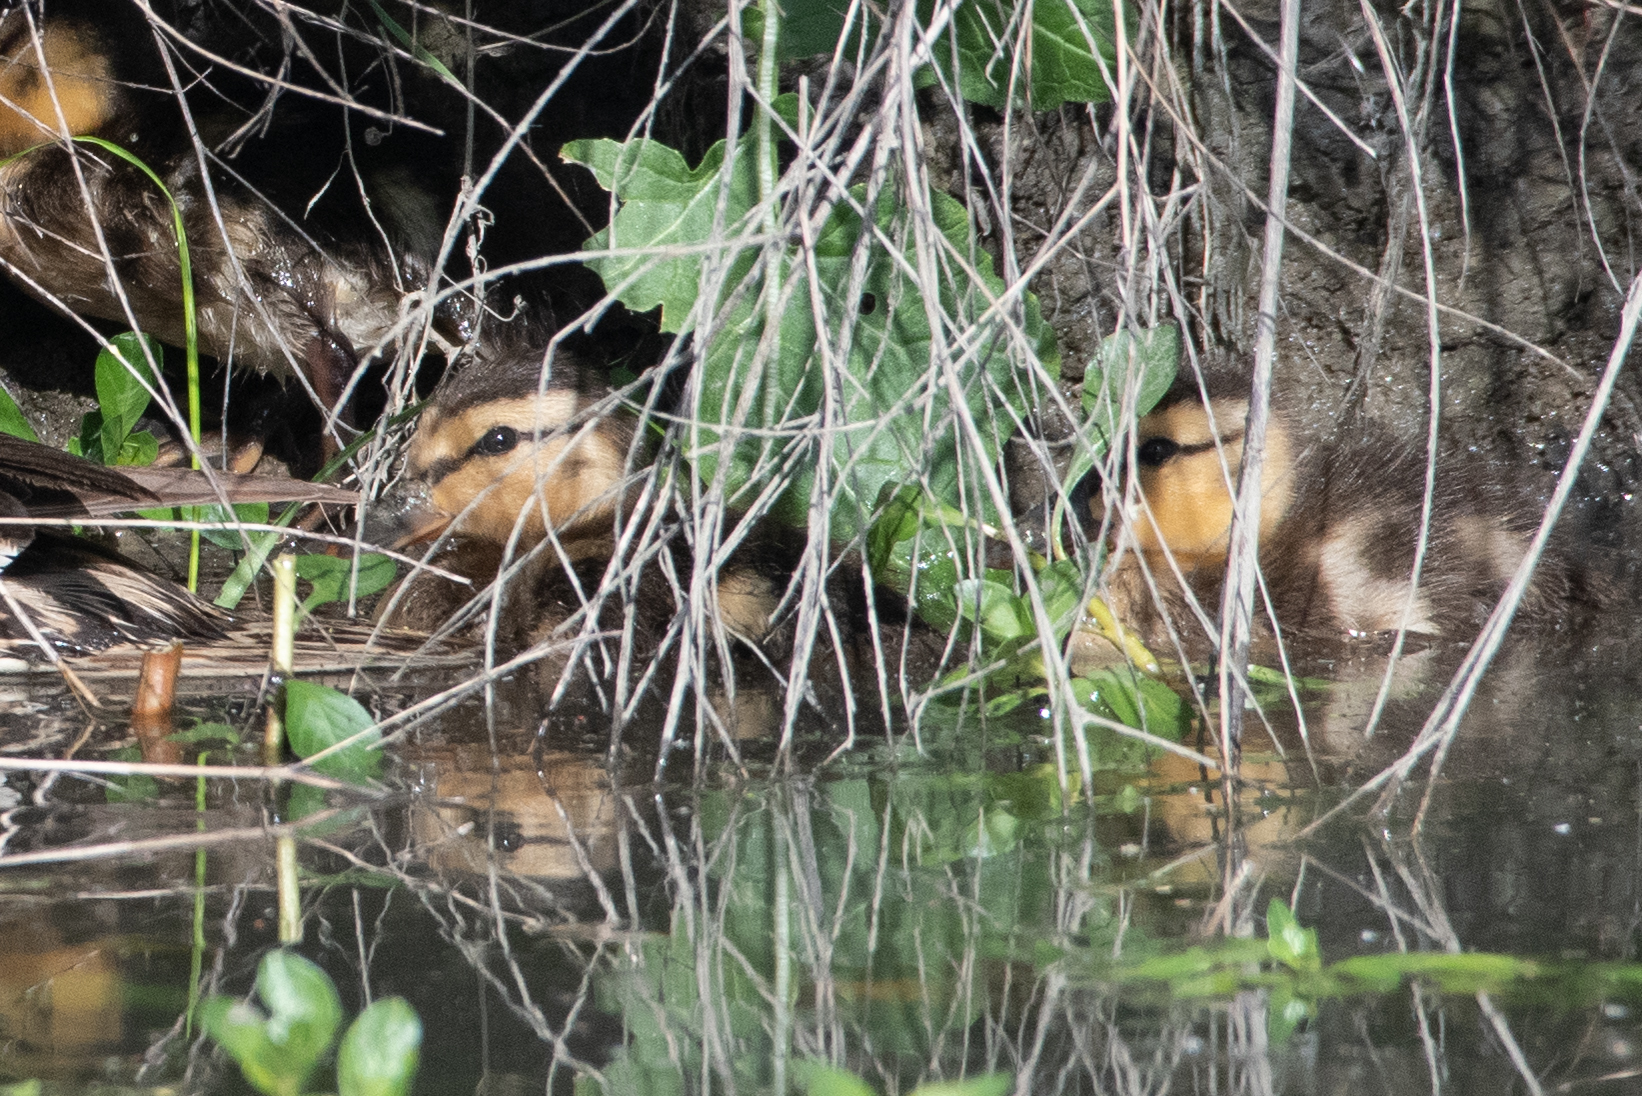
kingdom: Animalia
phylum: Chordata
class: Aves
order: Anseriformes
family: Anatidae
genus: Anas
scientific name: Anas platyrhynchos
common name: Mallard
